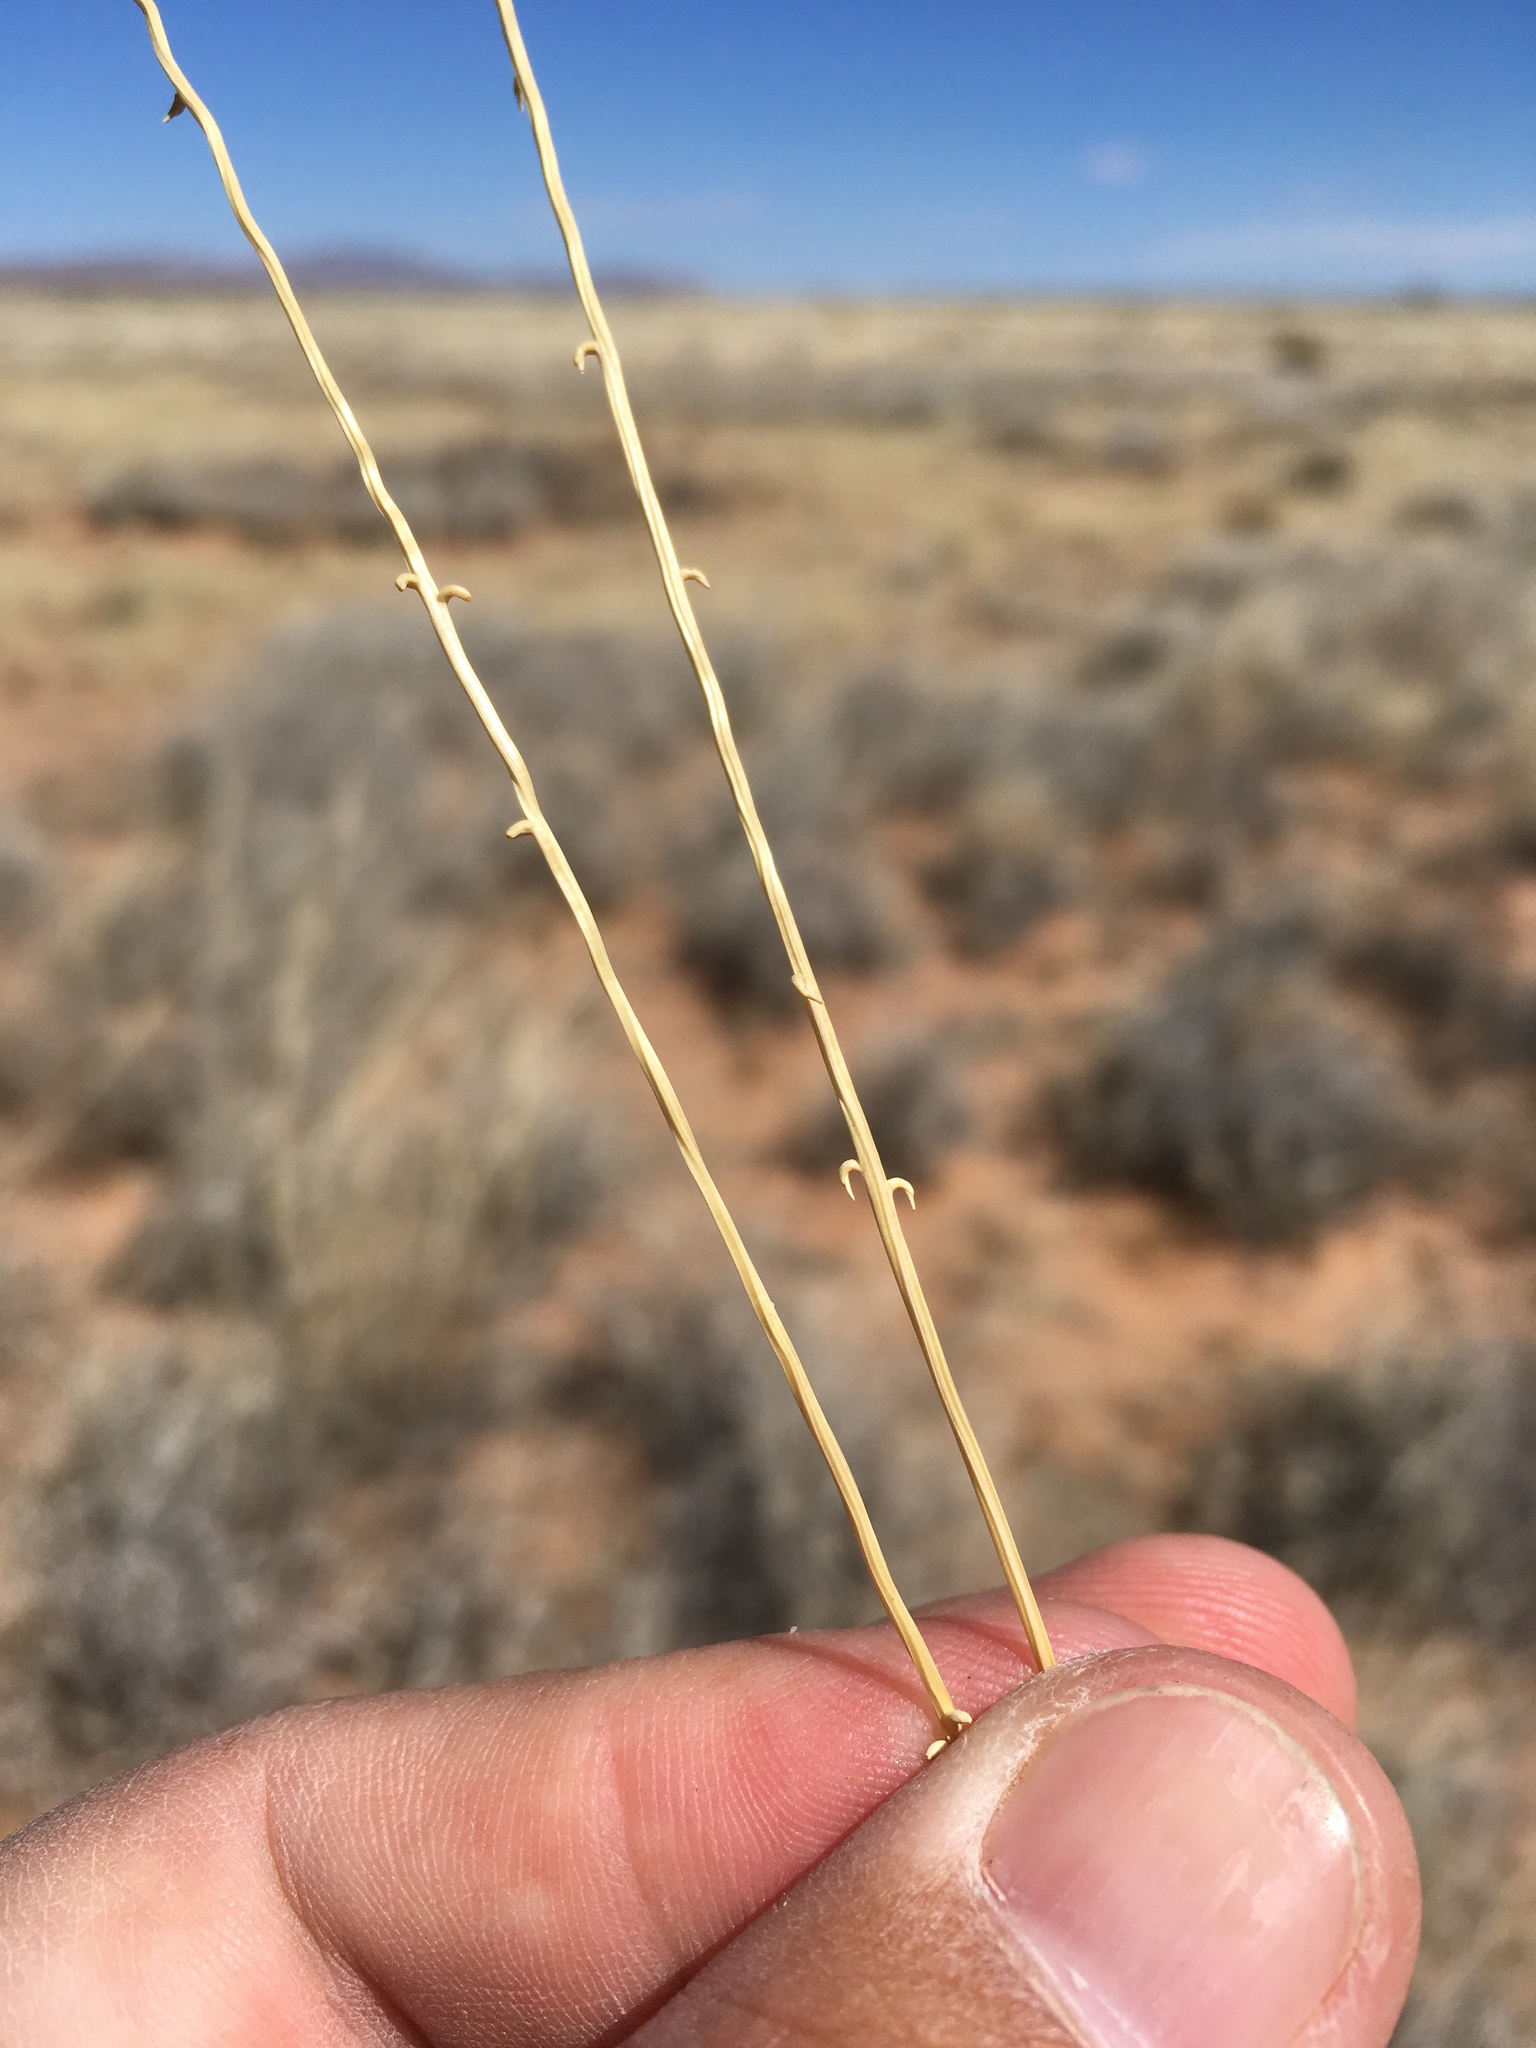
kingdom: Plantae
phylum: Tracheophyta
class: Liliopsida
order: Poales
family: Poaceae
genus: Sporobolus
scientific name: Sporobolus flexuosus
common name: Mesa dropseed
